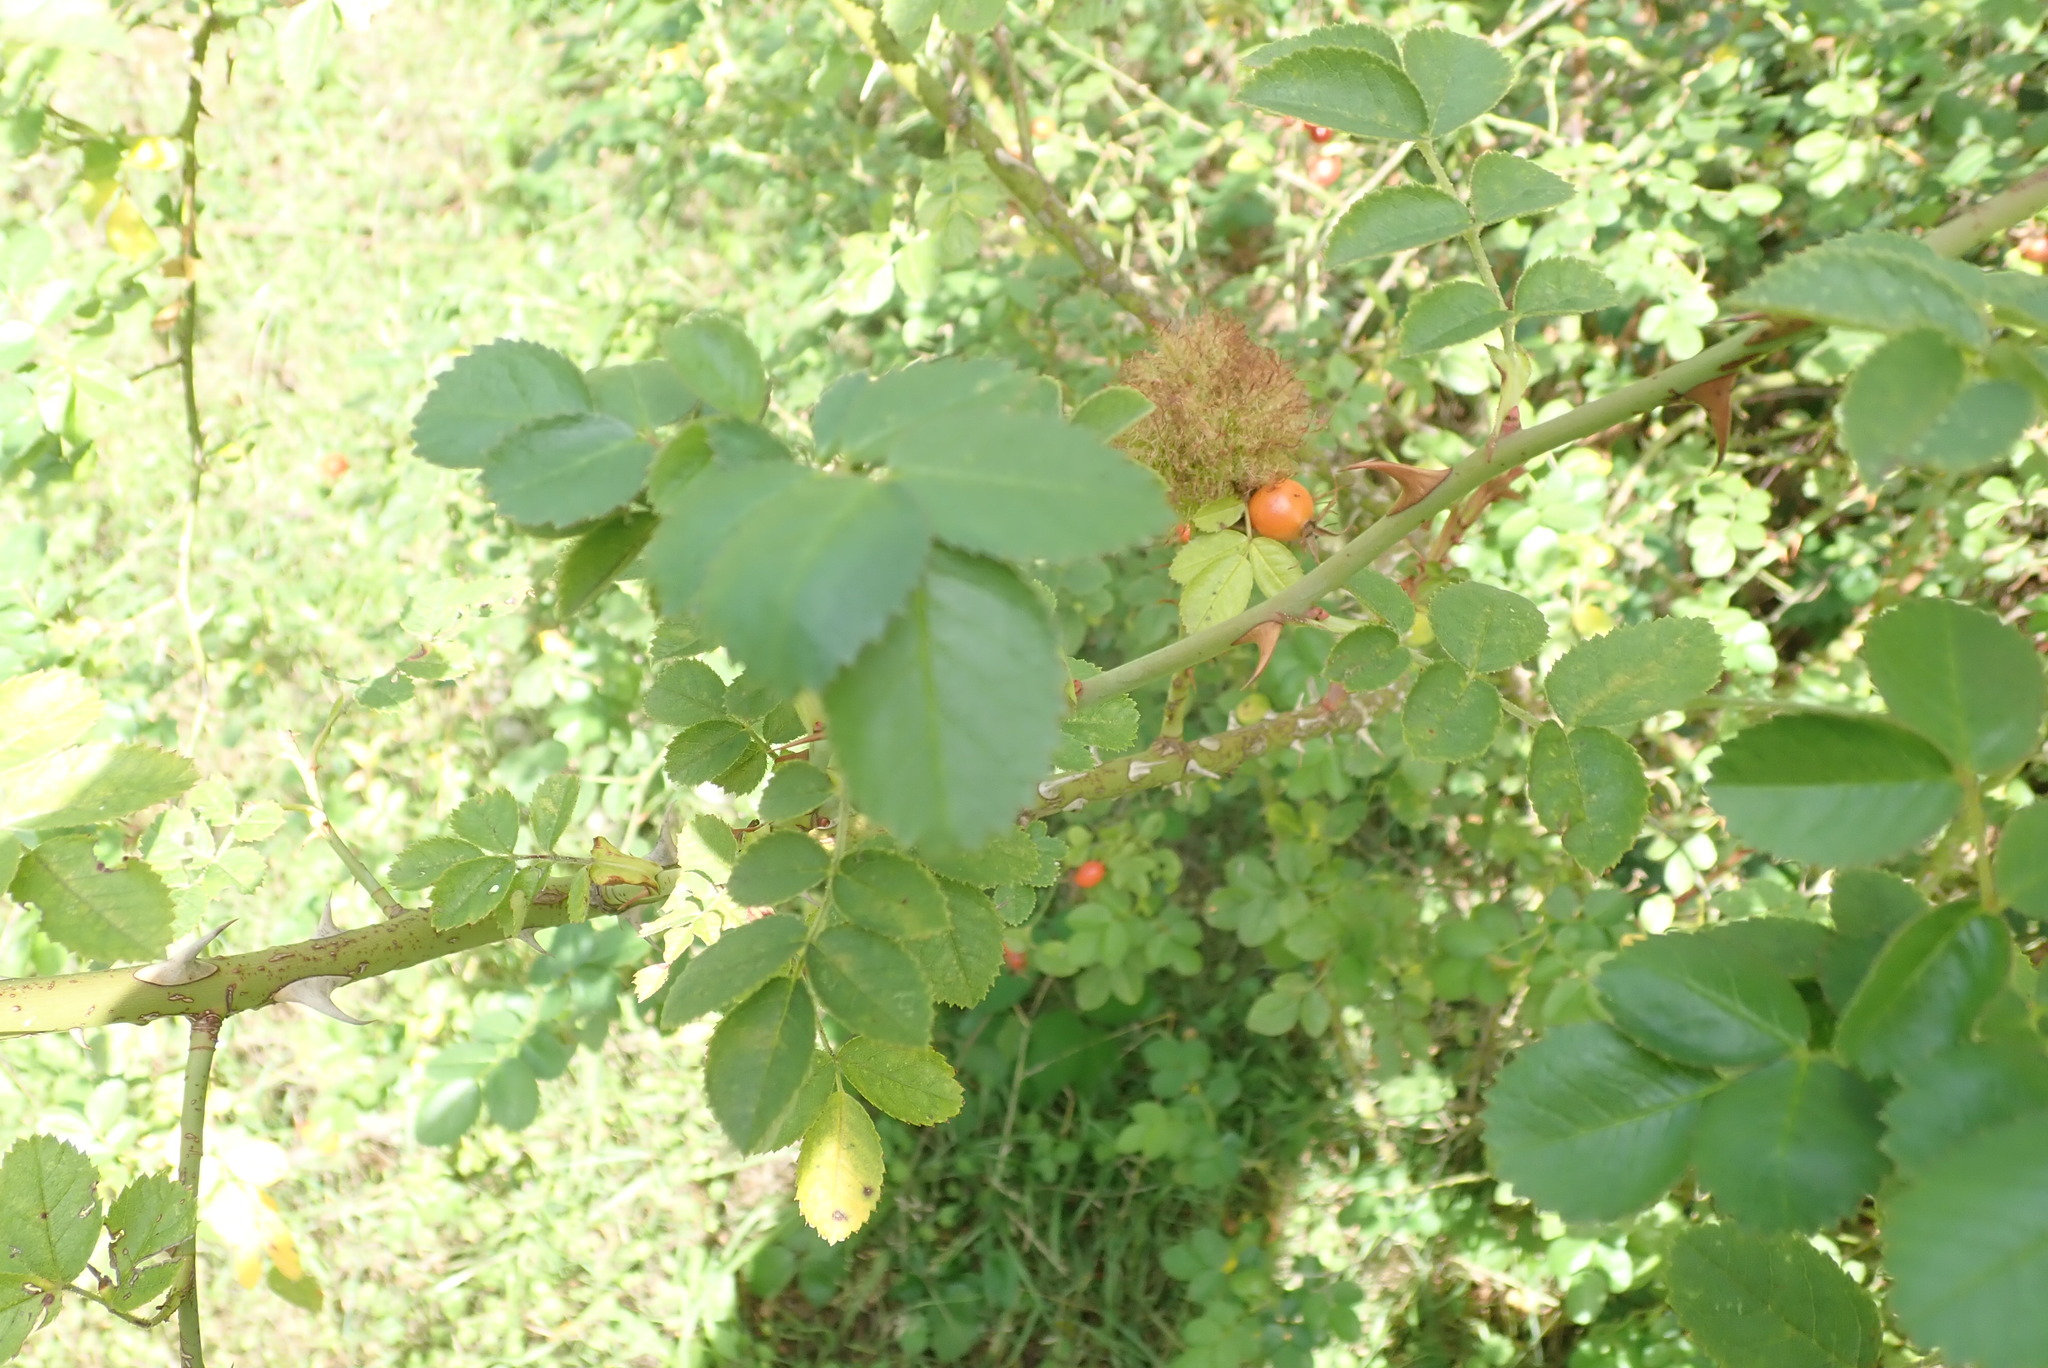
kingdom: Animalia
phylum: Arthropoda
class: Insecta
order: Hymenoptera
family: Cynipidae
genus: Diplolepis
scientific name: Diplolepis rosae
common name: Bedeguar gall
